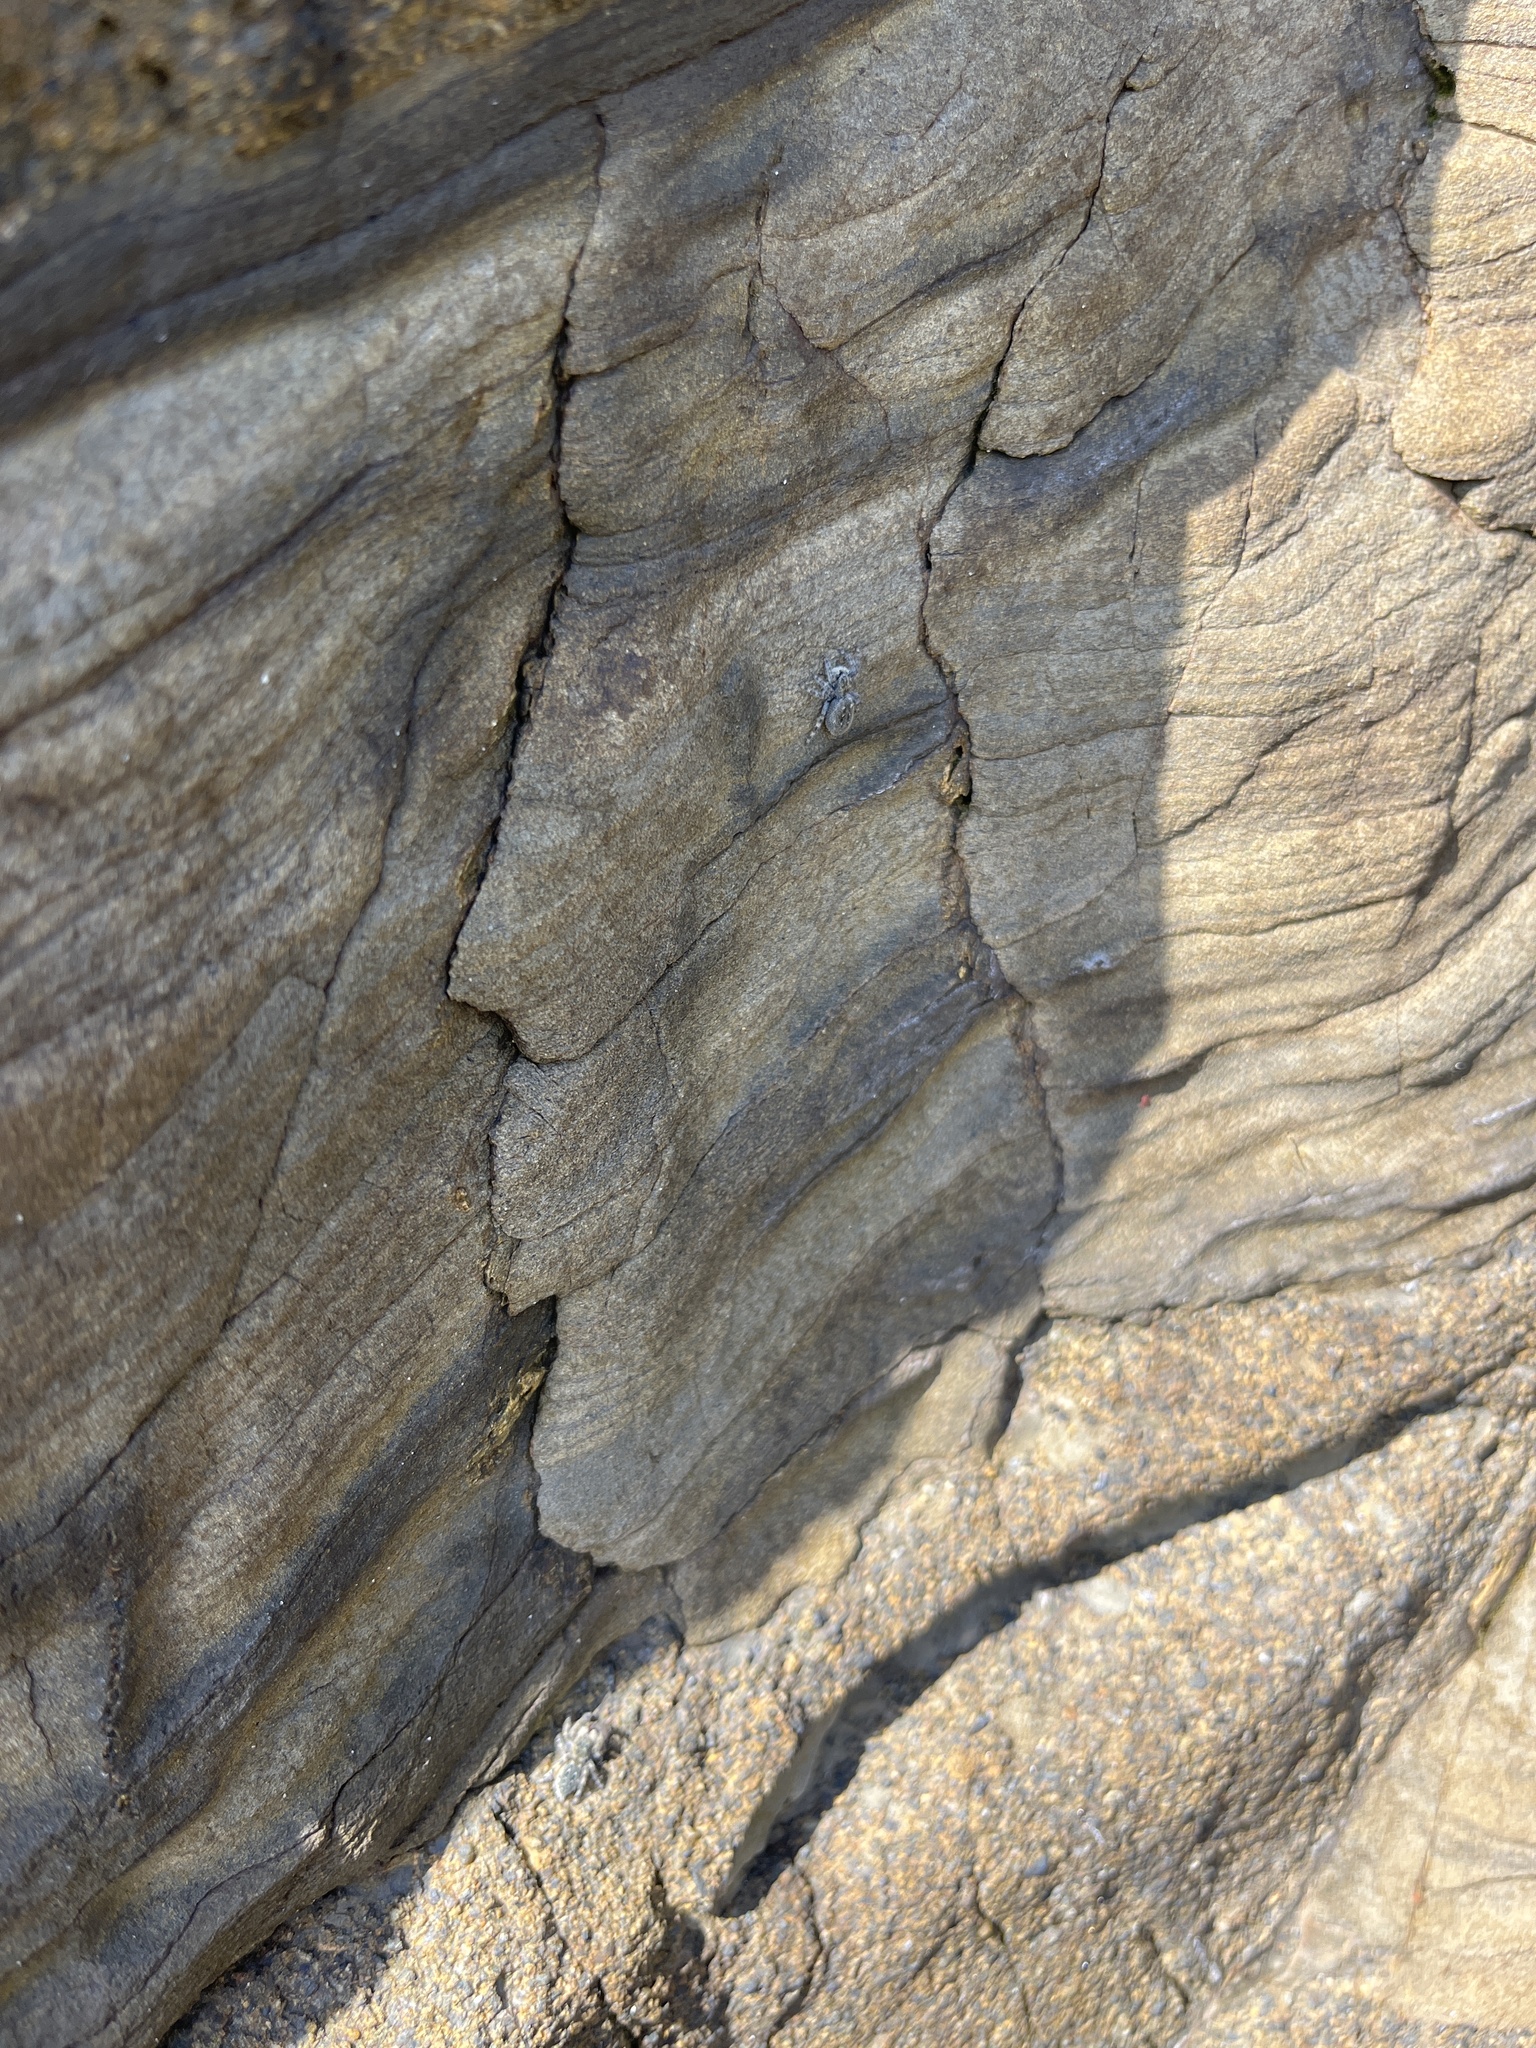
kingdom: Animalia
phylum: Arthropoda
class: Arachnida
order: Araneae
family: Salticidae
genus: Terralonus
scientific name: Terralonus californicus
